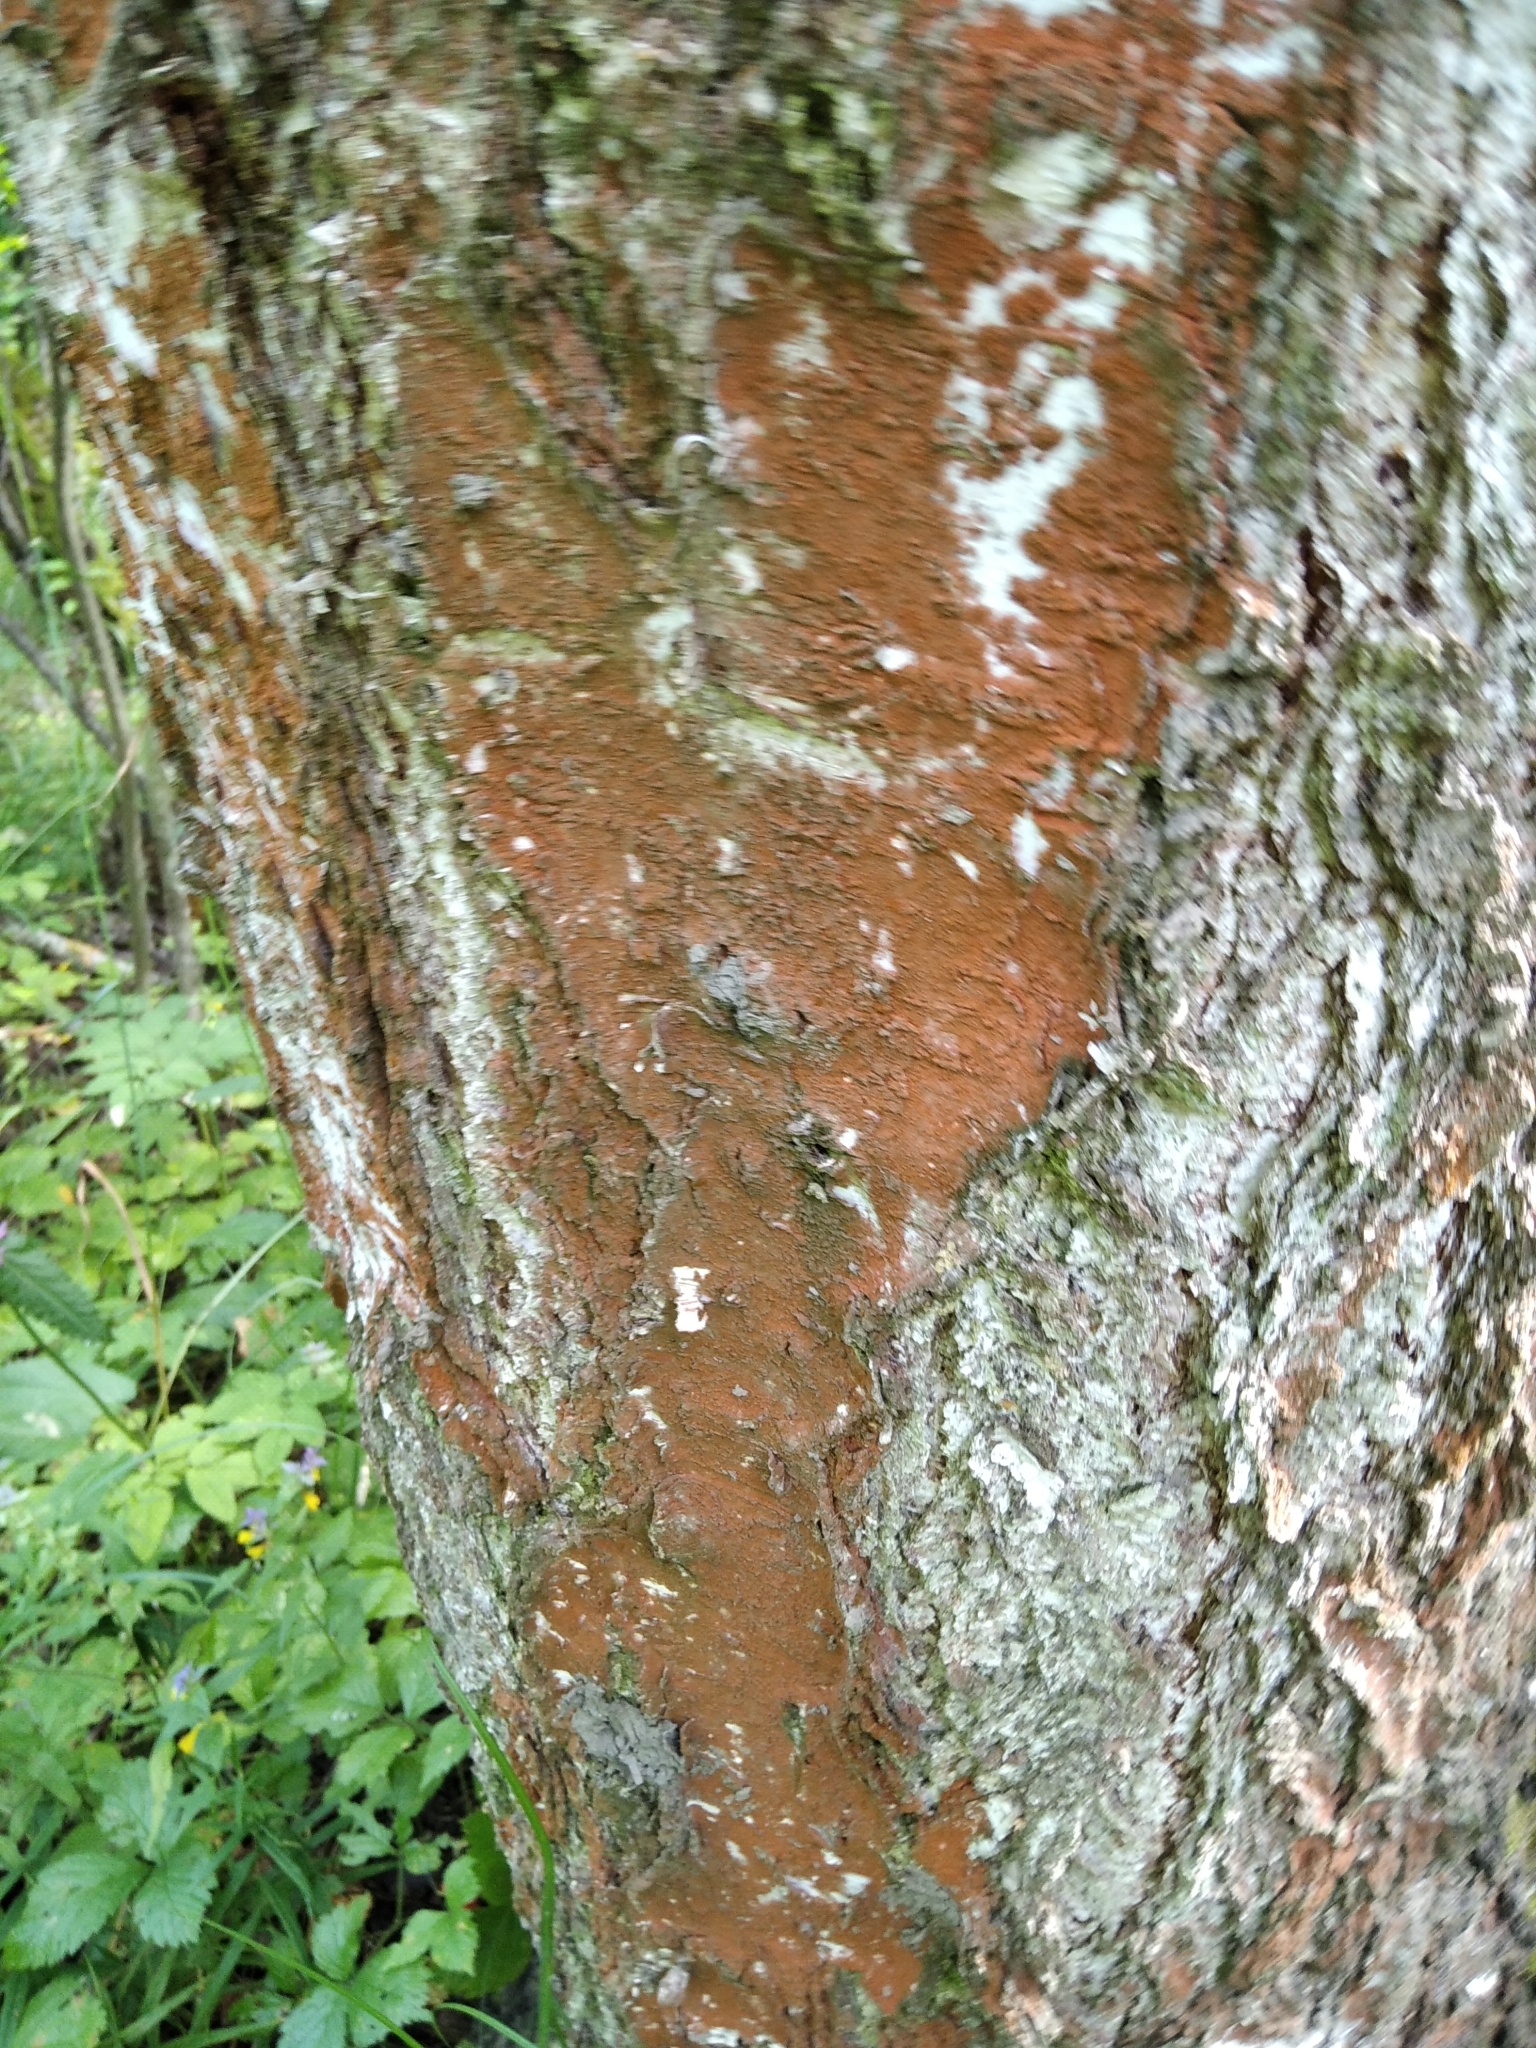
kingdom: Plantae
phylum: Chlorophyta
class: Ulvophyceae
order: Trentepohliales
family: Trentepohliaceae
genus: Trentepohlia
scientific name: Trentepohlia
